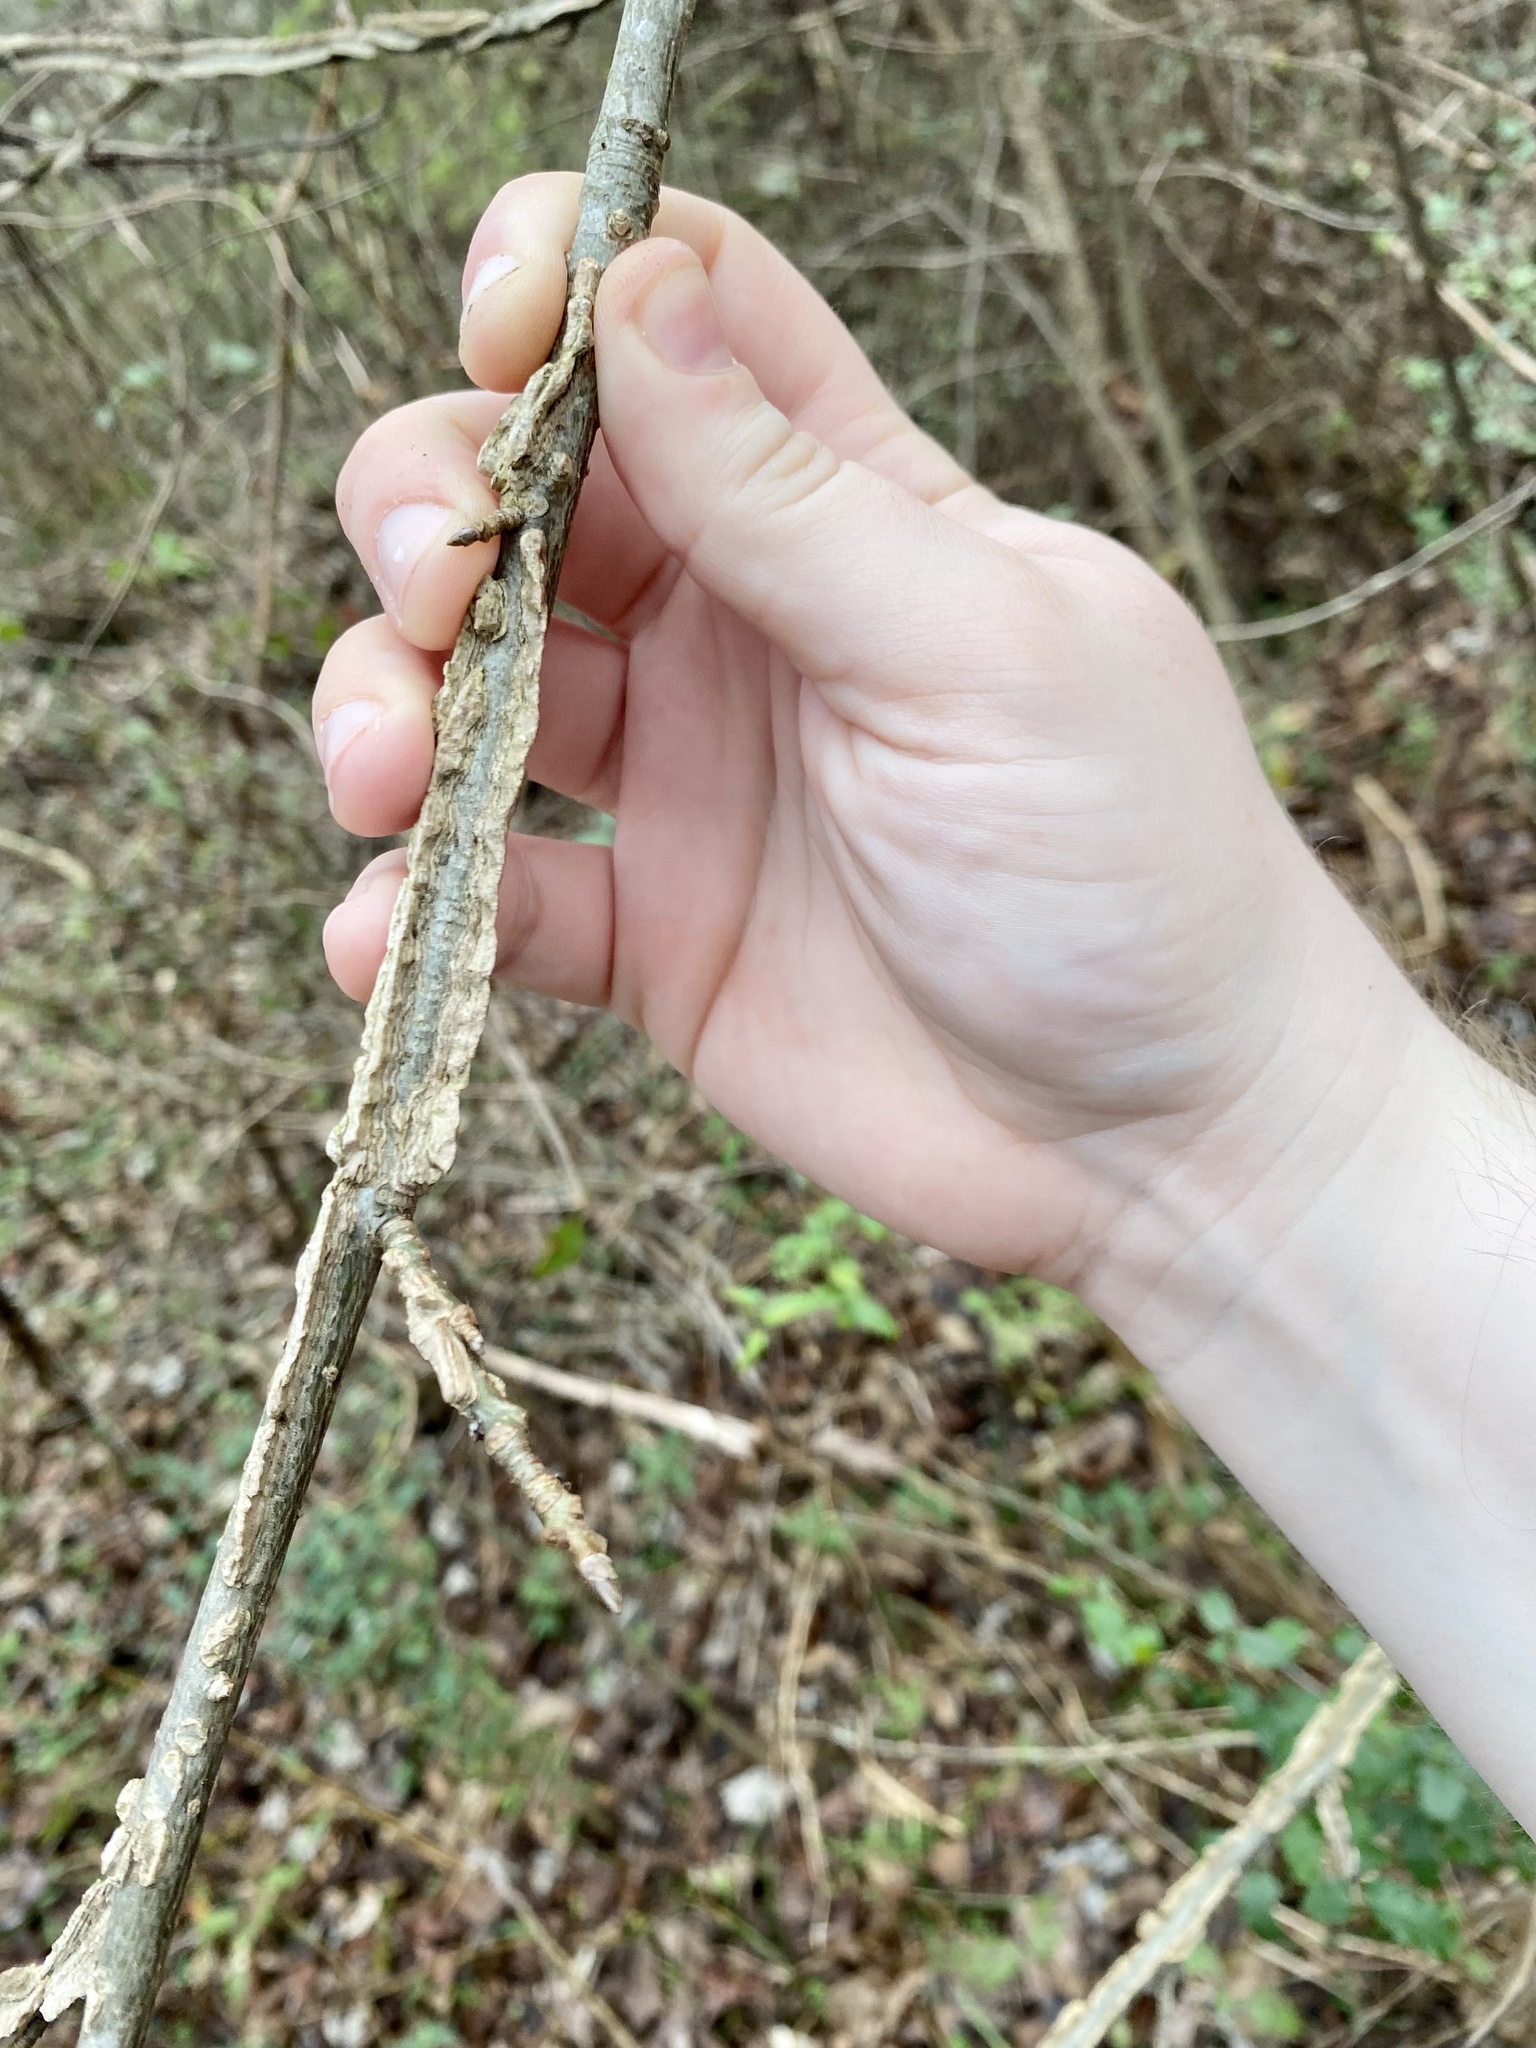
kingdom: Plantae
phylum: Tracheophyta
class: Magnoliopsida
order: Saxifragales
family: Altingiaceae
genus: Liquidambar
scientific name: Liquidambar styraciflua
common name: Sweet gum
